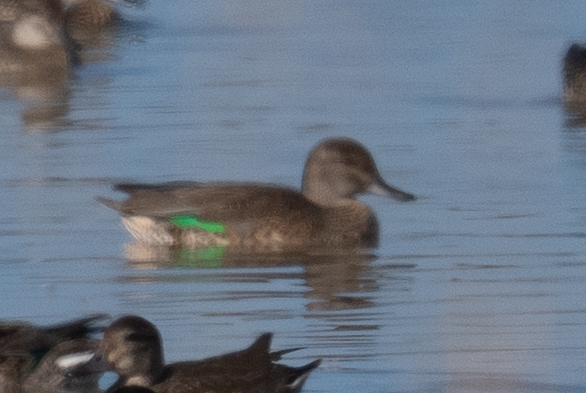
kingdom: Animalia
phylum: Chordata
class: Aves
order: Anseriformes
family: Anatidae
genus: Anas
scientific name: Anas crecca
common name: Eurasian teal
